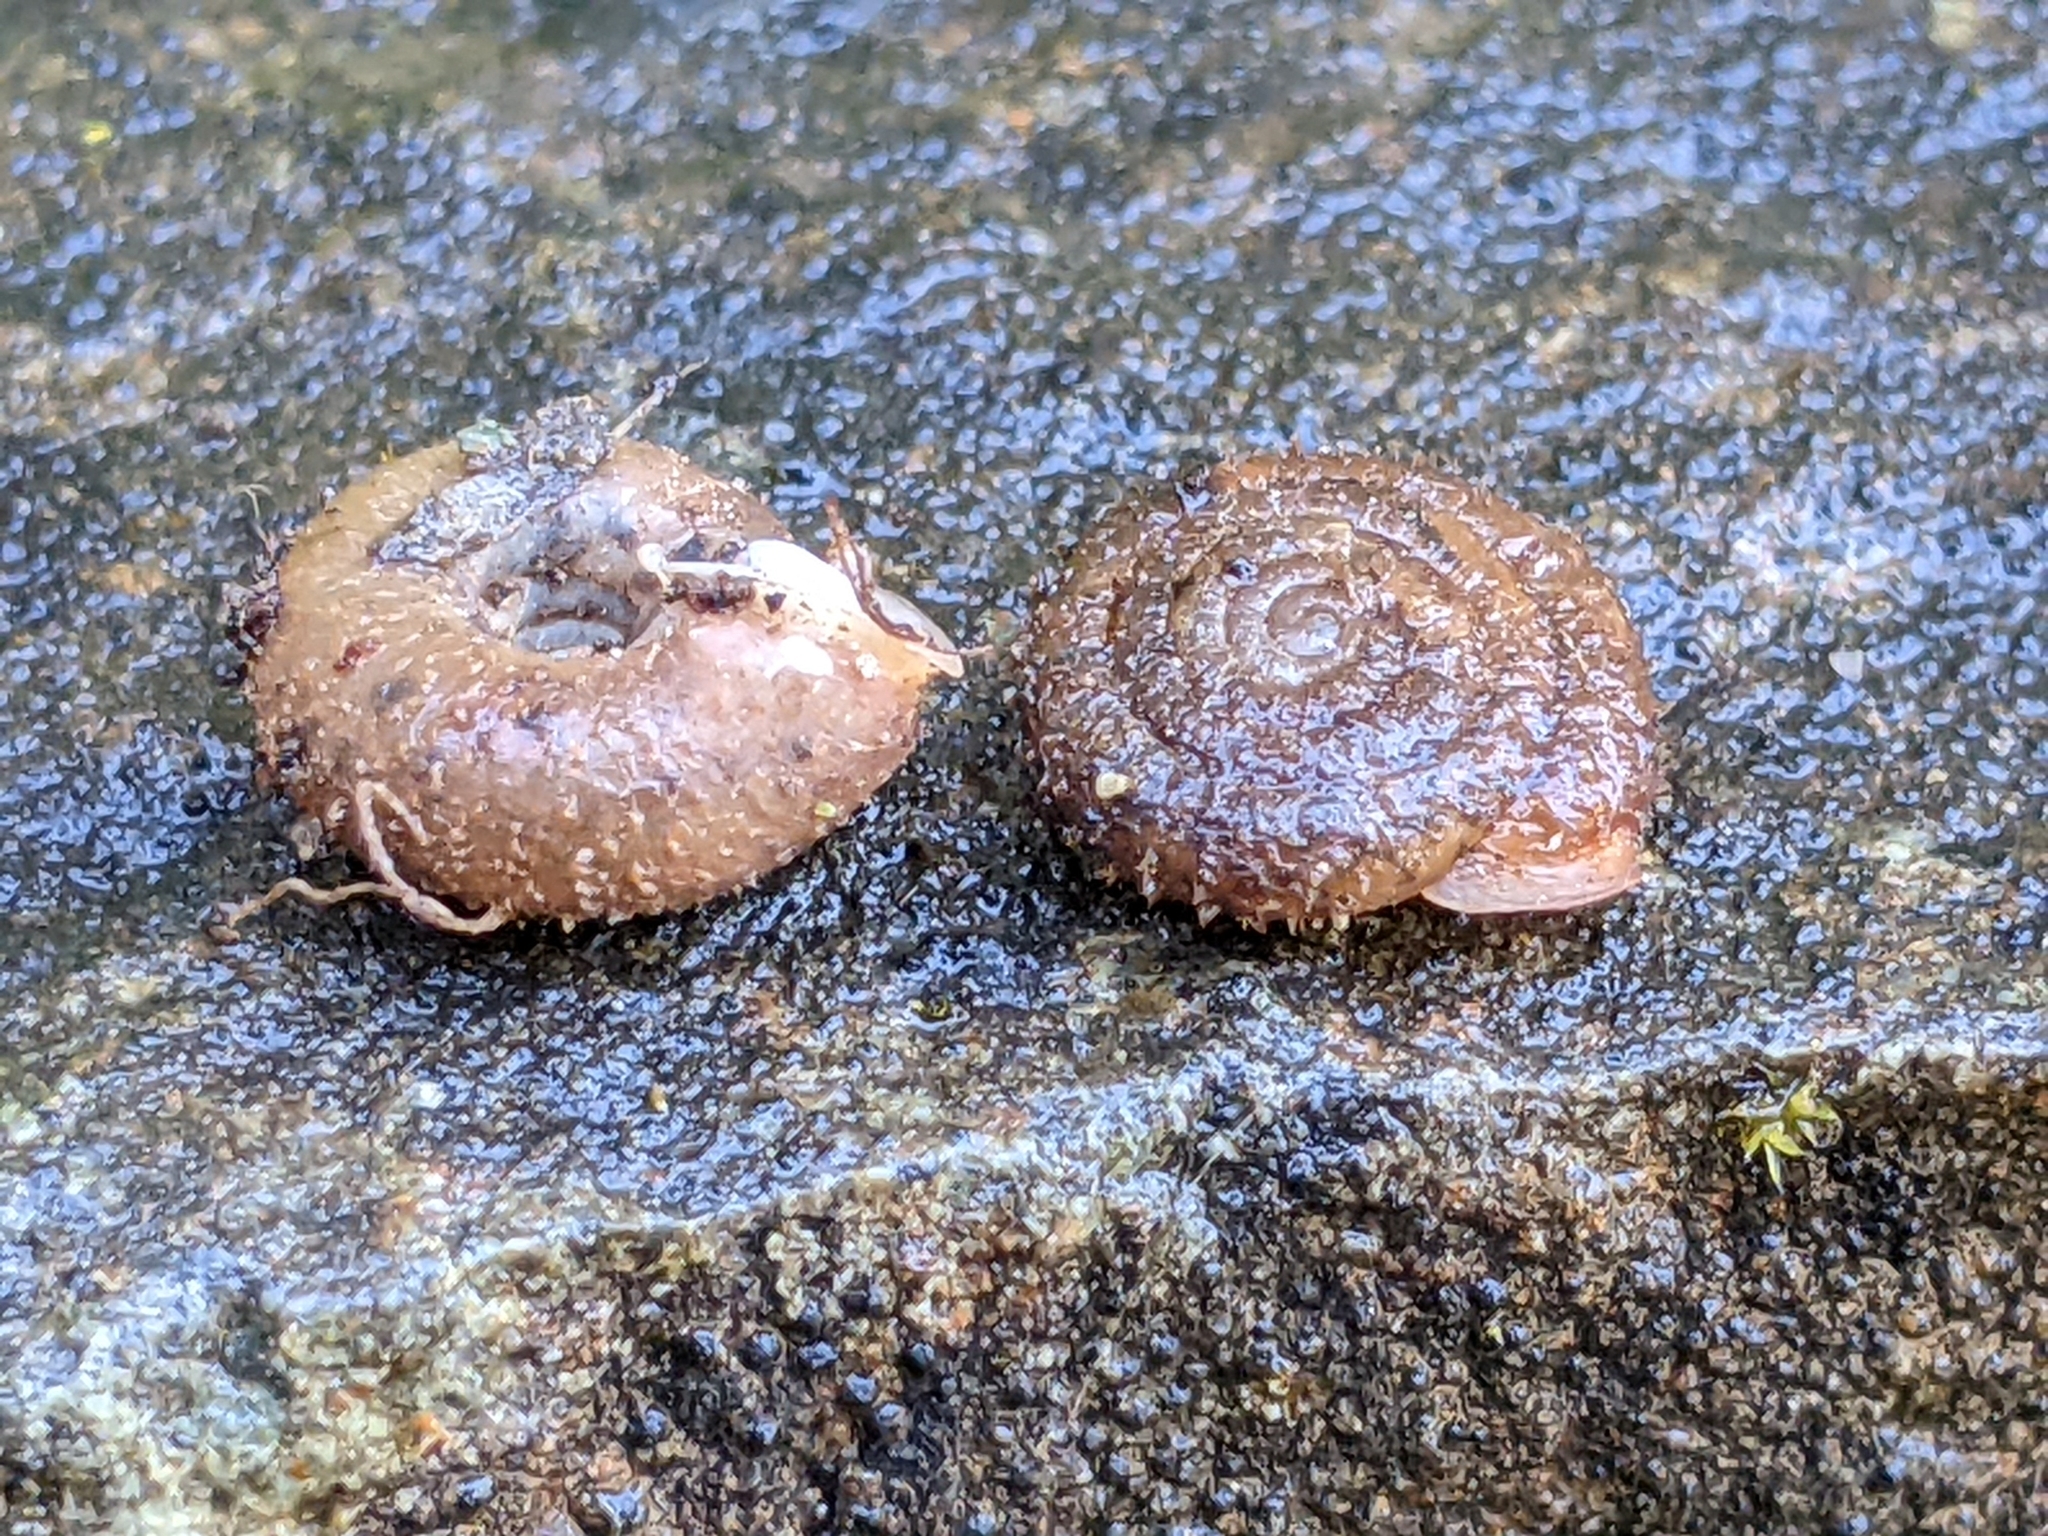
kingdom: Animalia
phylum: Mollusca
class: Gastropoda
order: Stylommatophora
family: Polygyridae
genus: Trilobopsis
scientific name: Trilobopsis loricata
